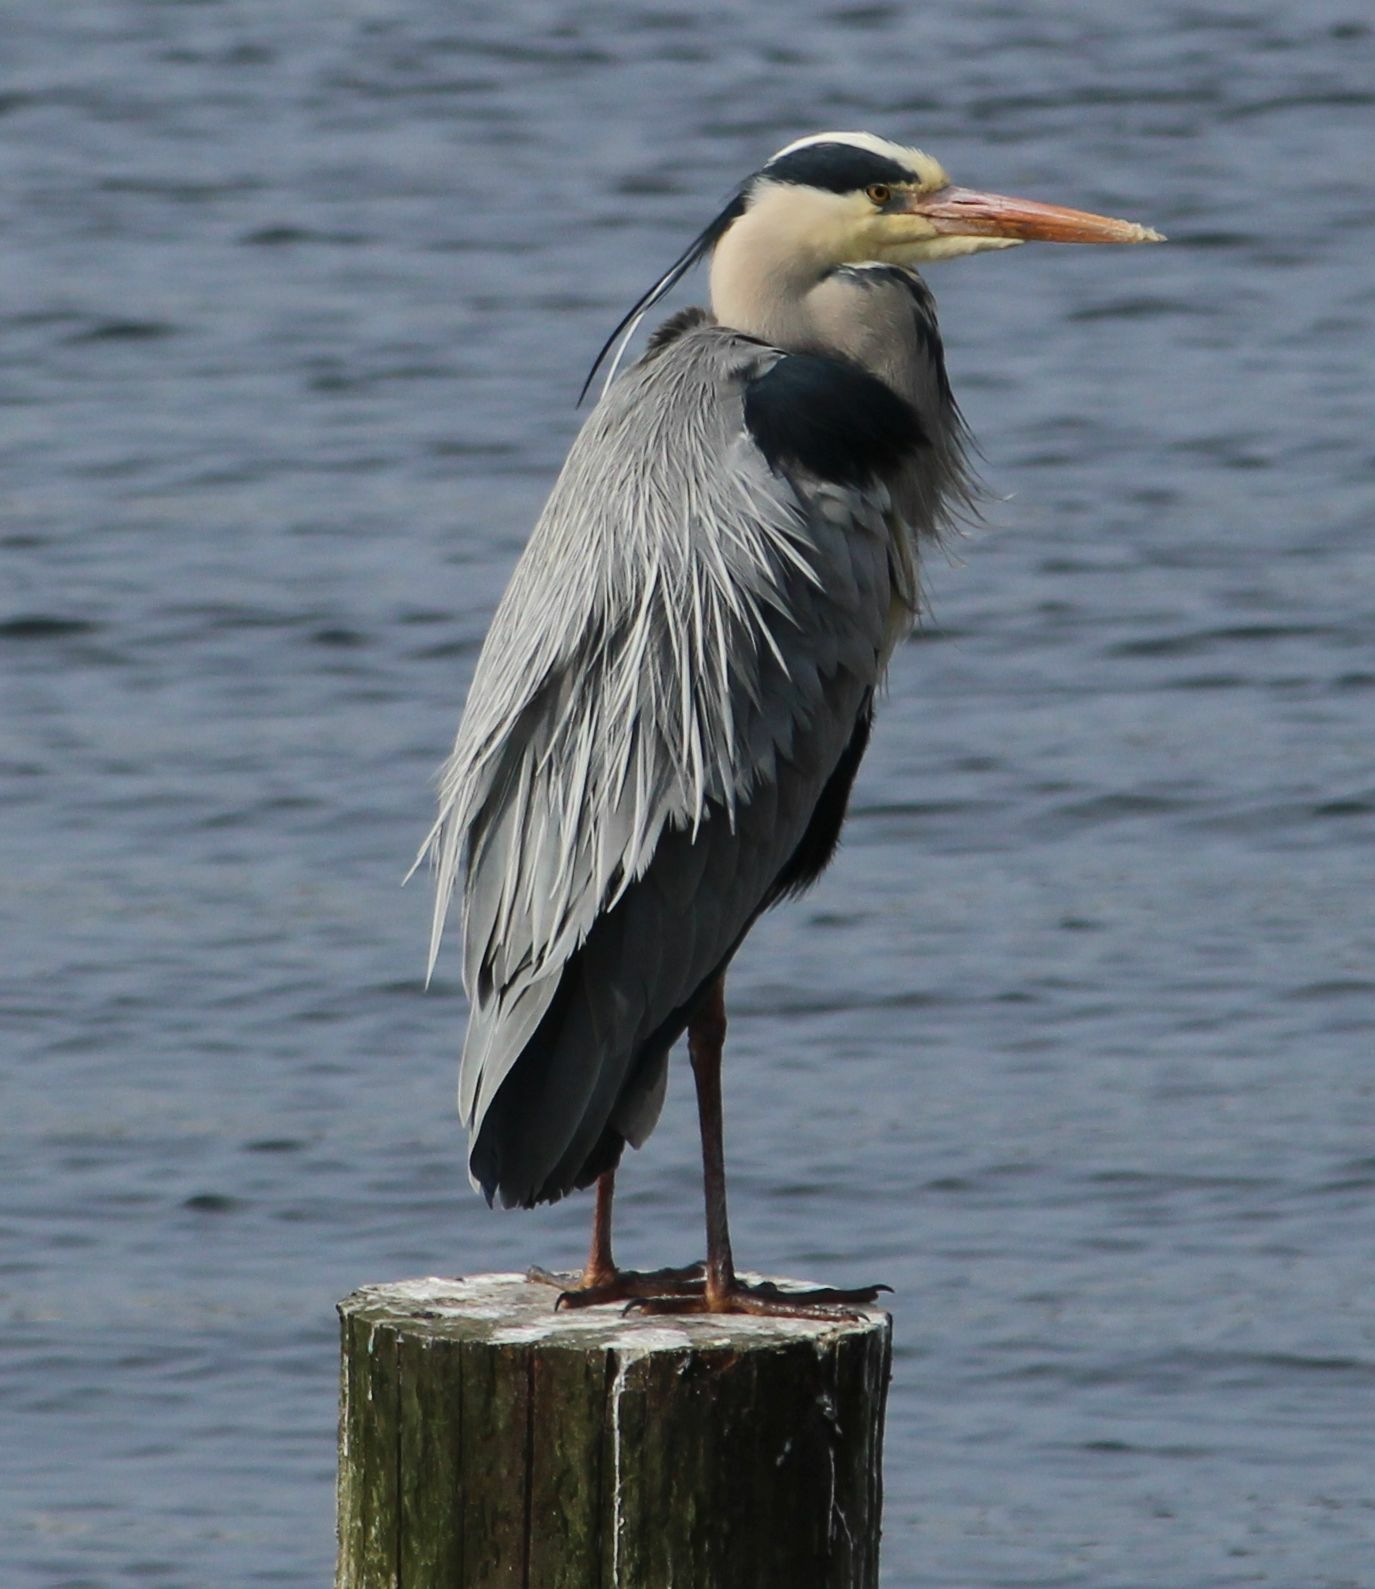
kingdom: Animalia
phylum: Chordata
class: Aves
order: Pelecaniformes
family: Ardeidae
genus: Ardea
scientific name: Ardea cinerea
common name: Grey heron
